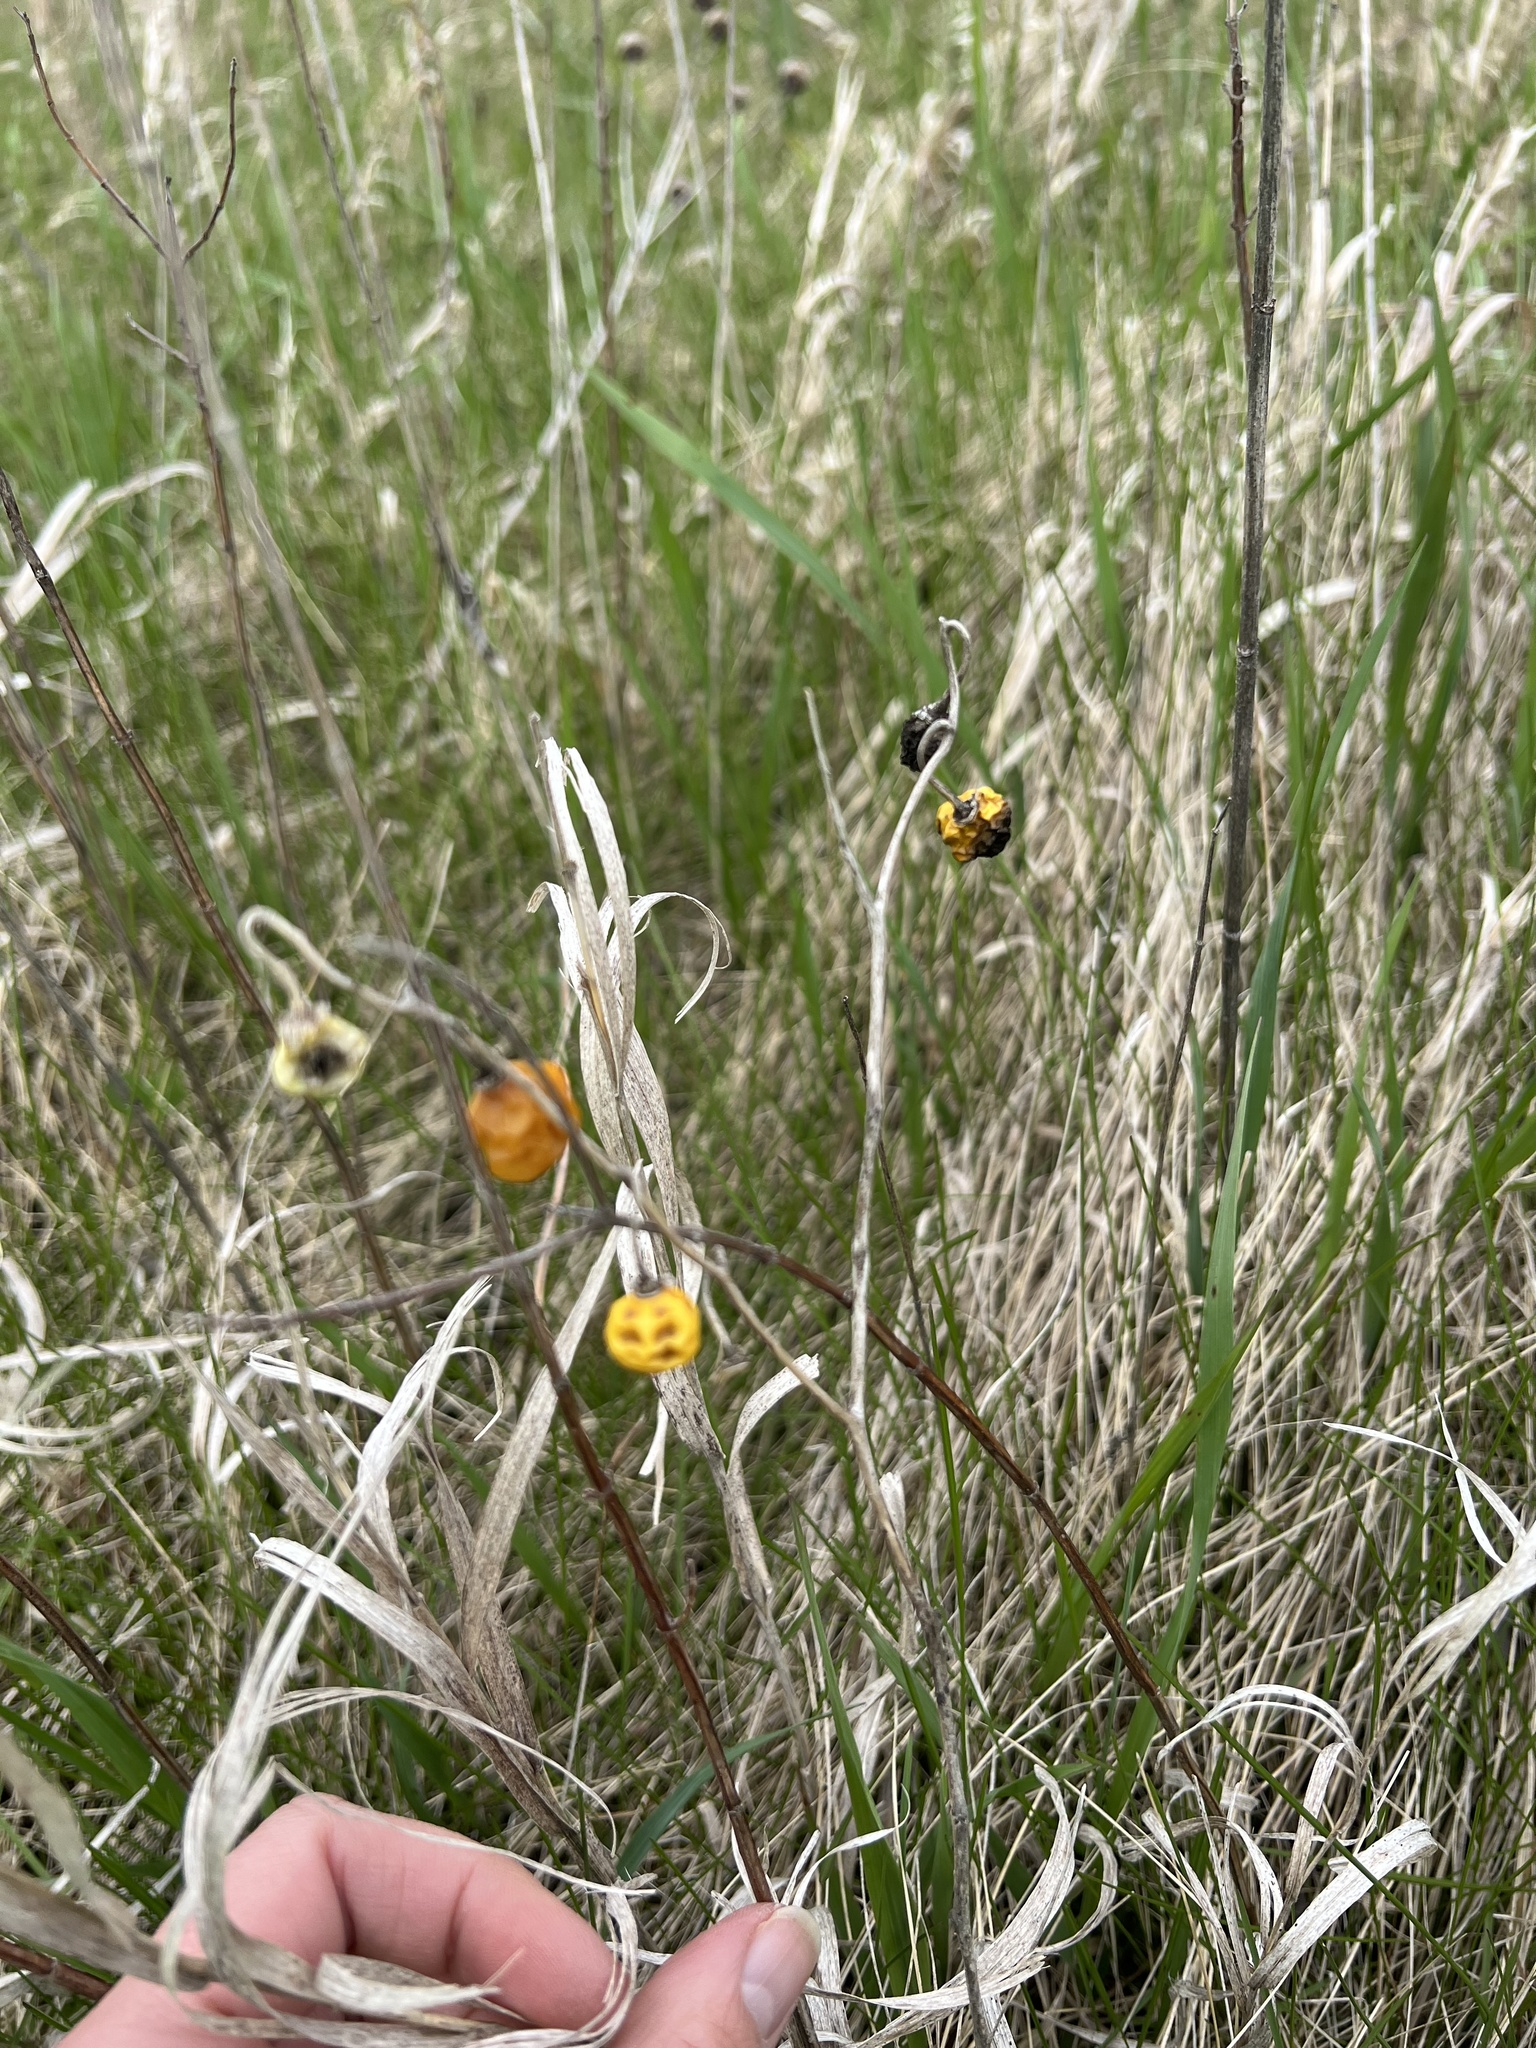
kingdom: Plantae
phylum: Tracheophyta
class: Magnoliopsida
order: Solanales
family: Solanaceae
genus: Solanum
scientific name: Solanum carolinense
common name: Horse-nettle
